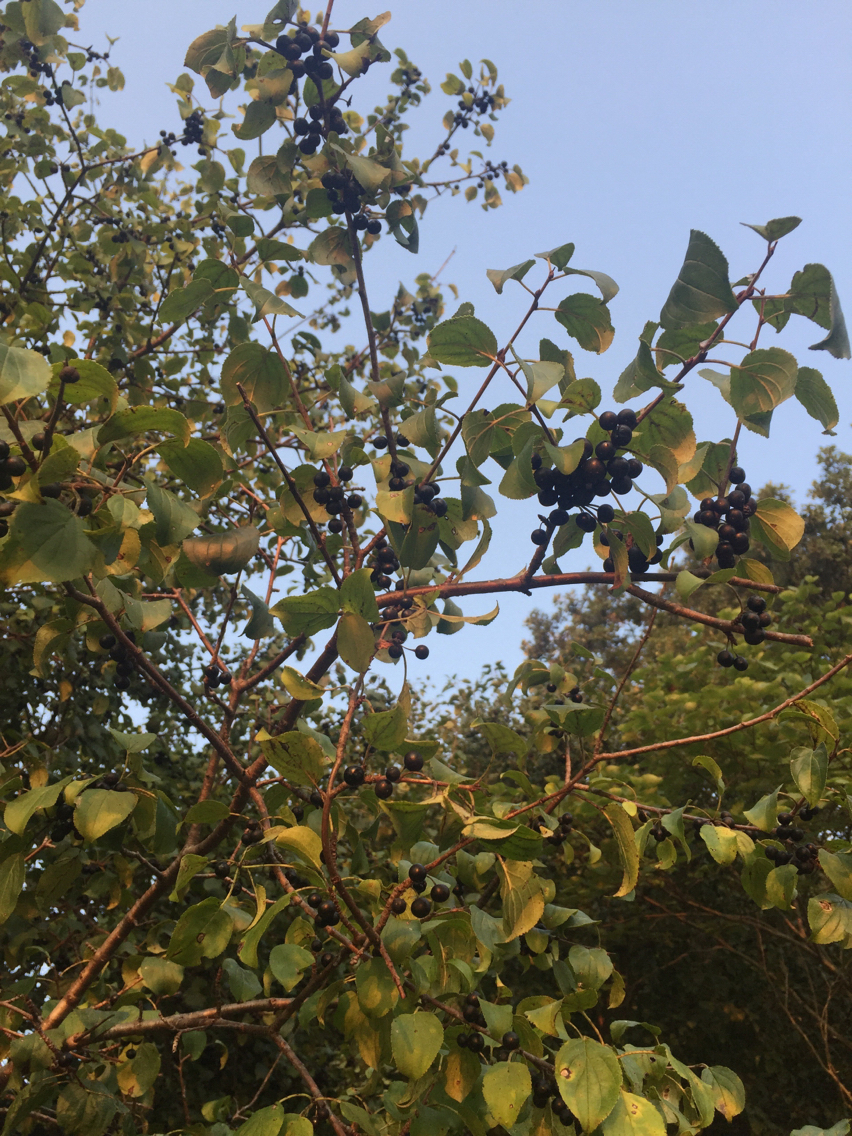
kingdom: Plantae
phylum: Tracheophyta
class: Magnoliopsida
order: Rosales
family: Rhamnaceae
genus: Rhamnus
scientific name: Rhamnus cathartica
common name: Common buckthorn
